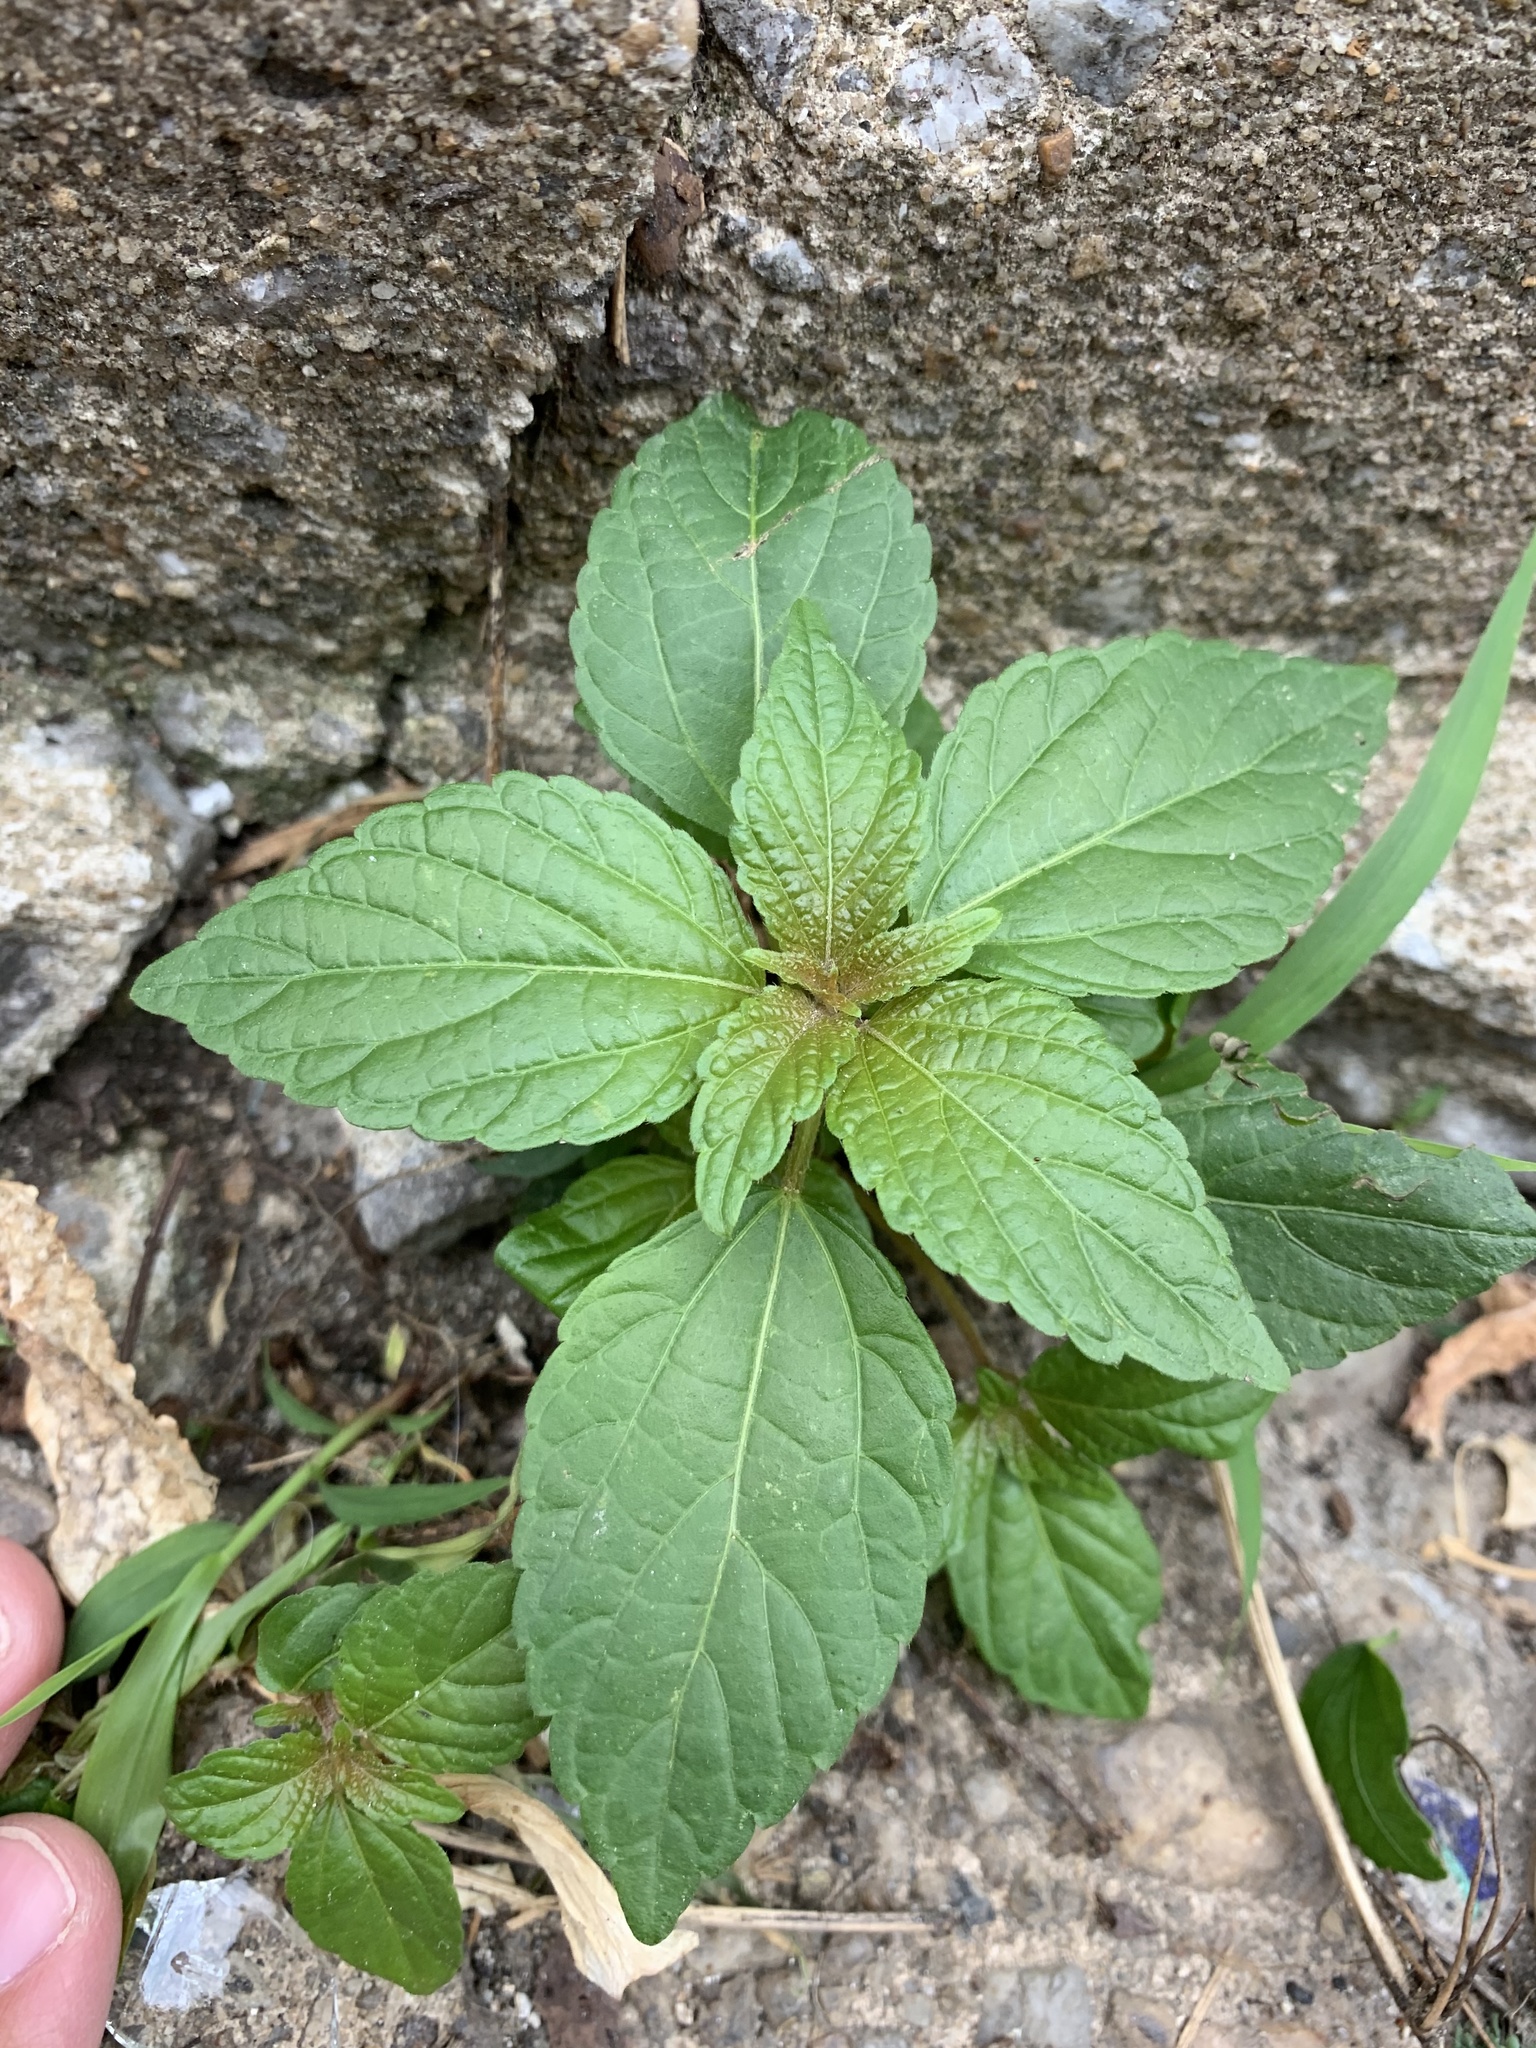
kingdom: Plantae
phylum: Tracheophyta
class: Magnoliopsida
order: Malpighiales
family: Euphorbiaceae
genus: Acalypha
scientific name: Acalypha rhomboidea
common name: Rhombic copperleaf
